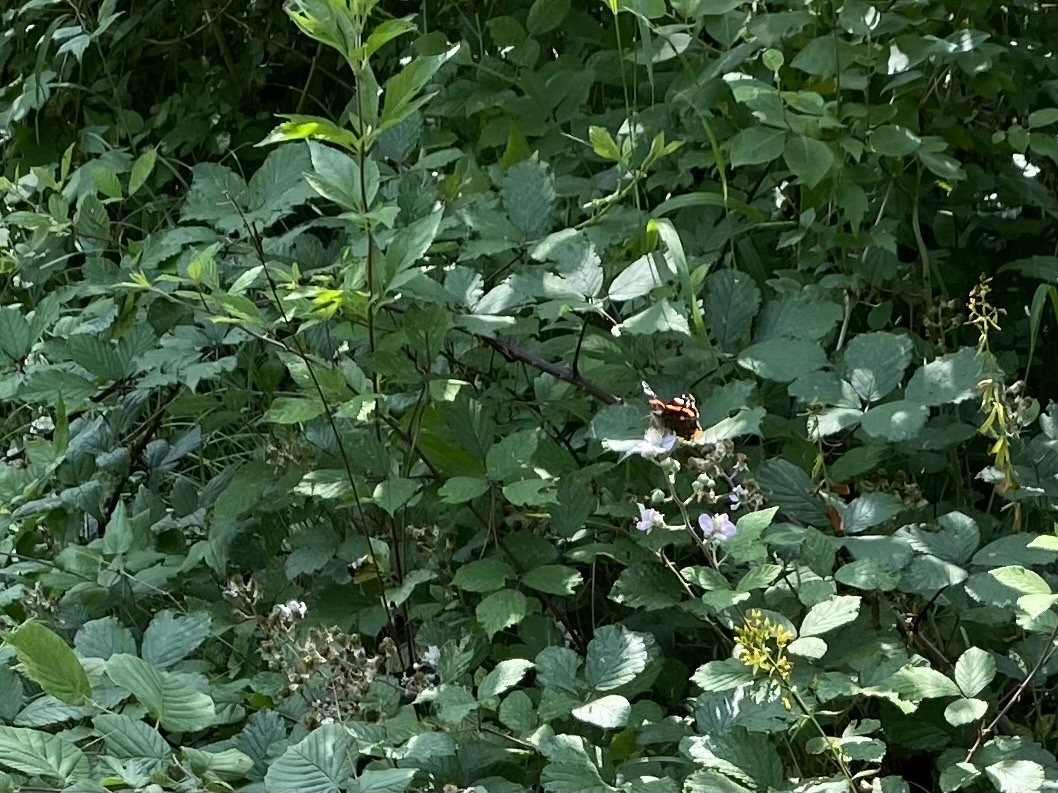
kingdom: Animalia
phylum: Arthropoda
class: Insecta
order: Lepidoptera
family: Nymphalidae
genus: Vanessa
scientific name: Vanessa atalanta
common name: Red admiral
